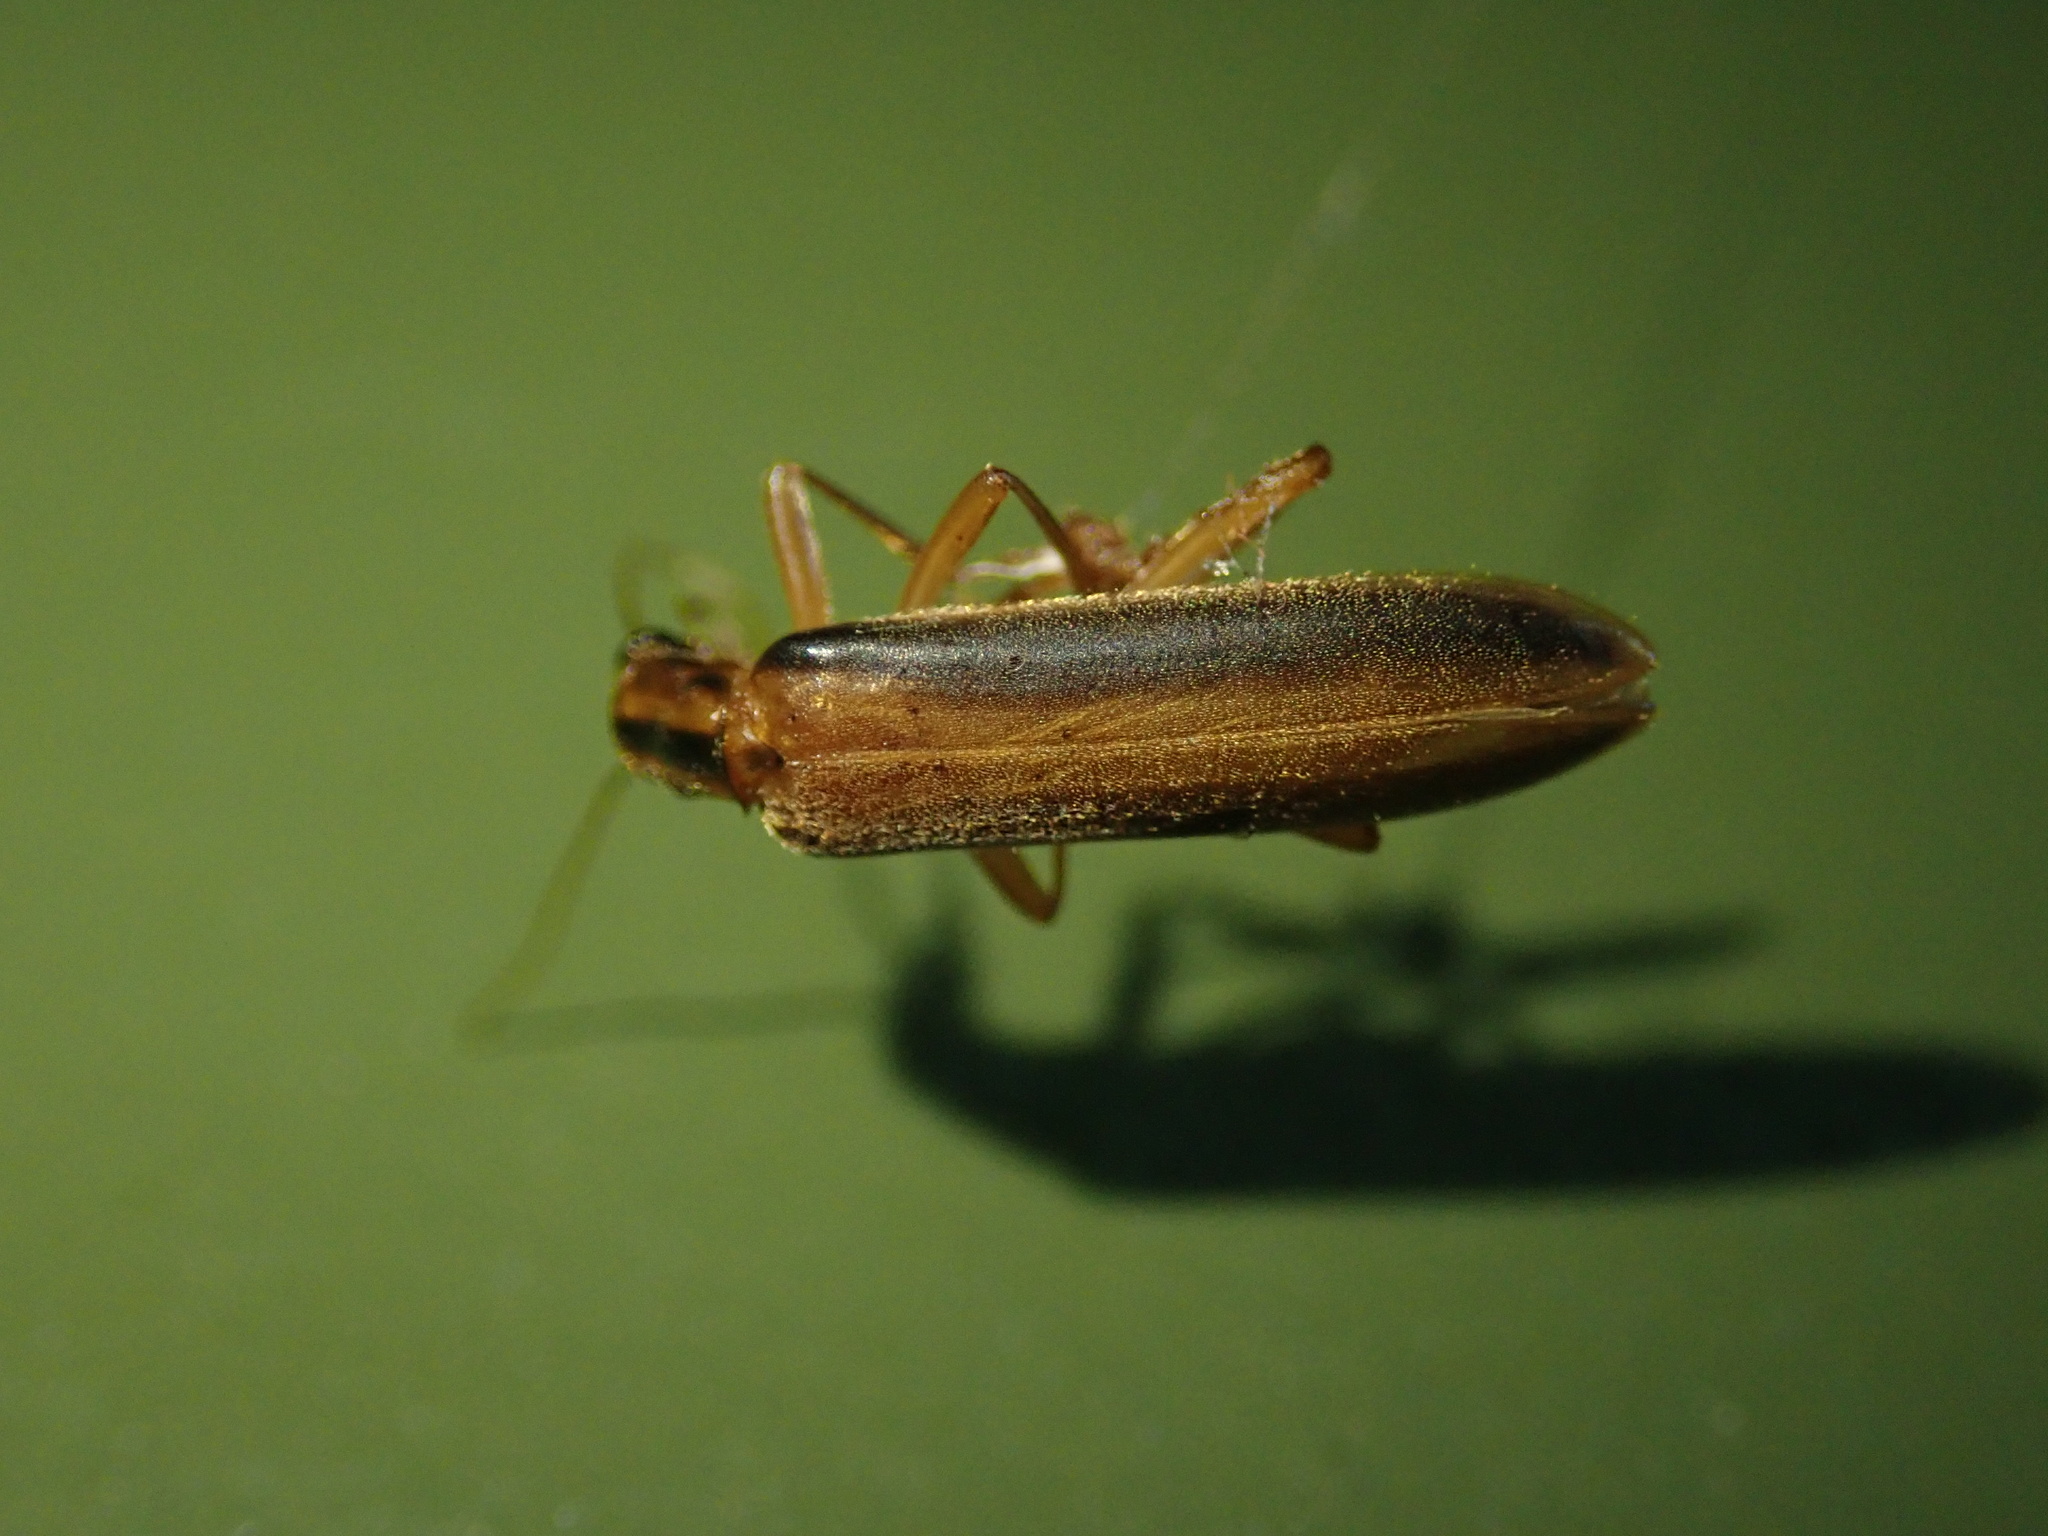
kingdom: Animalia
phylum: Arthropoda
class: Insecta
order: Coleoptera
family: Oedemeridae
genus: Thelyphassa
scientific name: Thelyphassa
